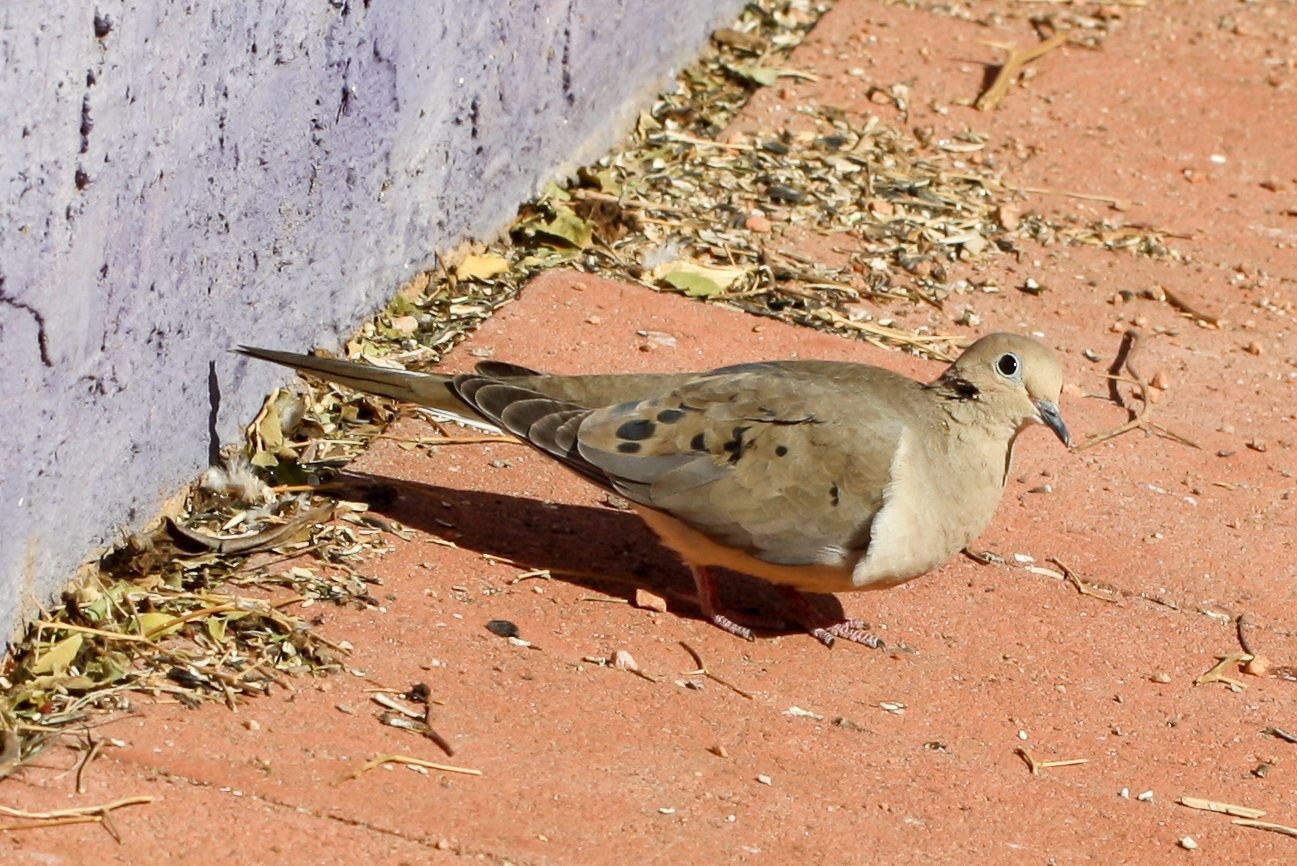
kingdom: Animalia
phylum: Chordata
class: Aves
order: Columbiformes
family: Columbidae
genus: Zenaida
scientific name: Zenaida macroura
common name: Mourning dove
